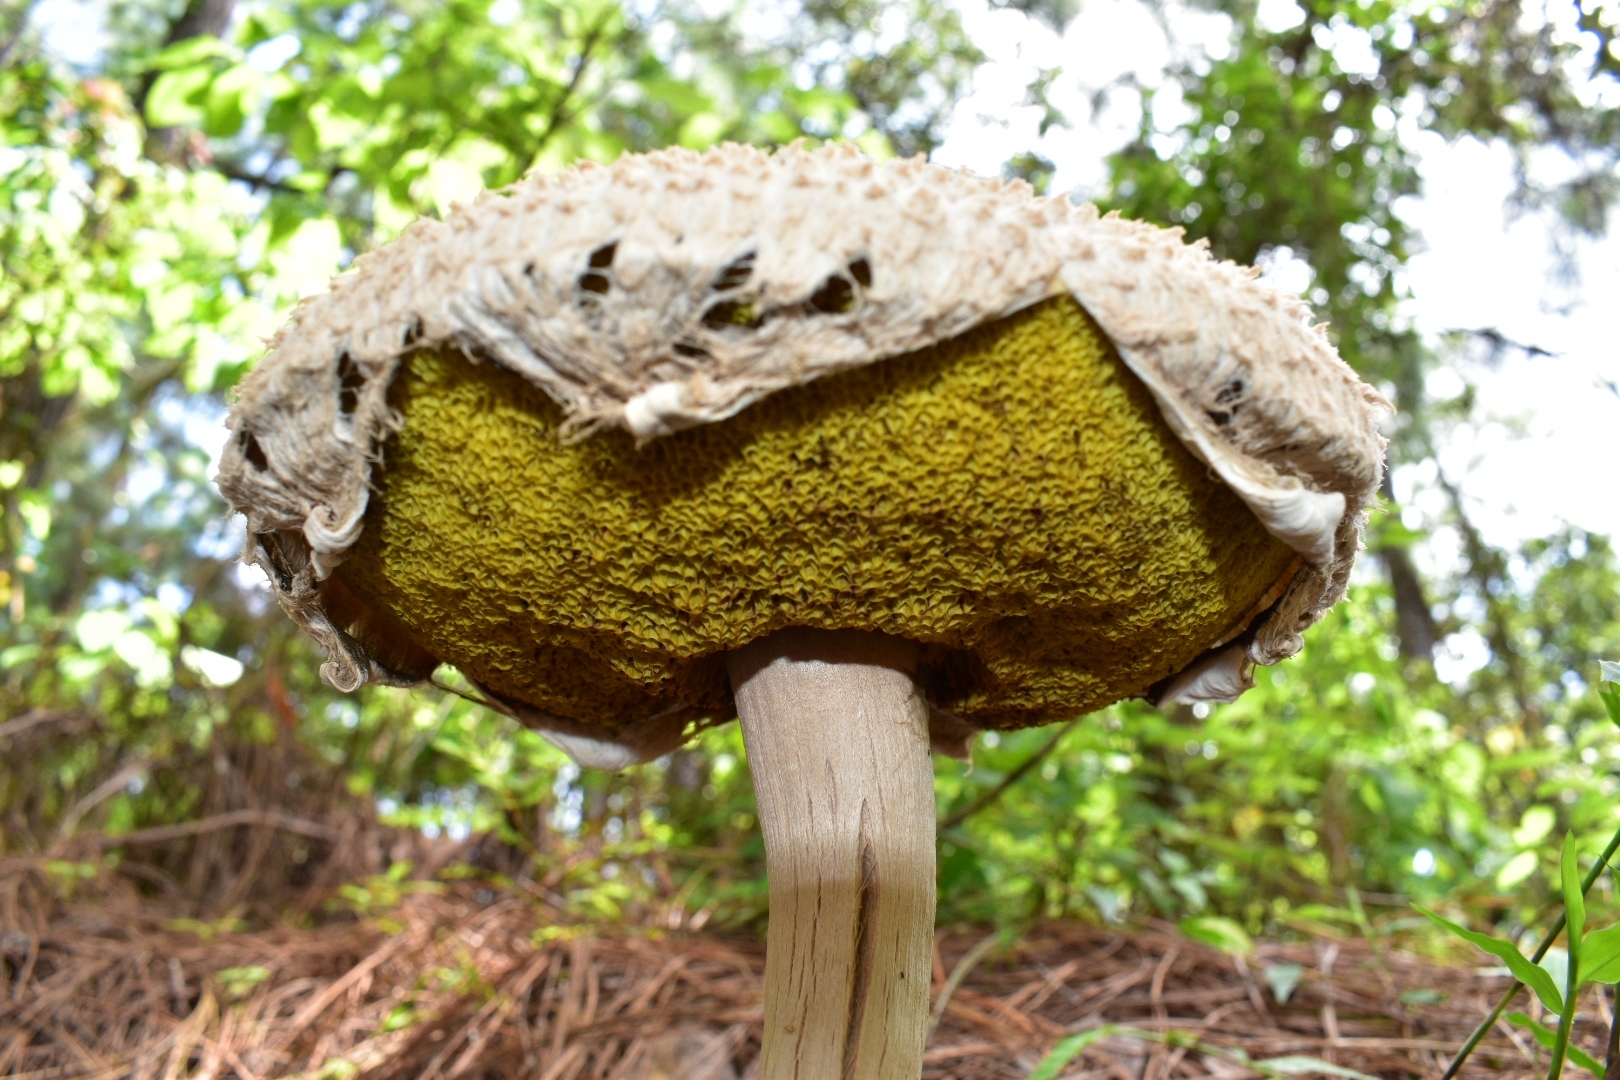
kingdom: Fungi
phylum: Basidiomycota
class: Agaricomycetes
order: Boletales
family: Boletaceae
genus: Boletellus
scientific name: Boletellus ananas
